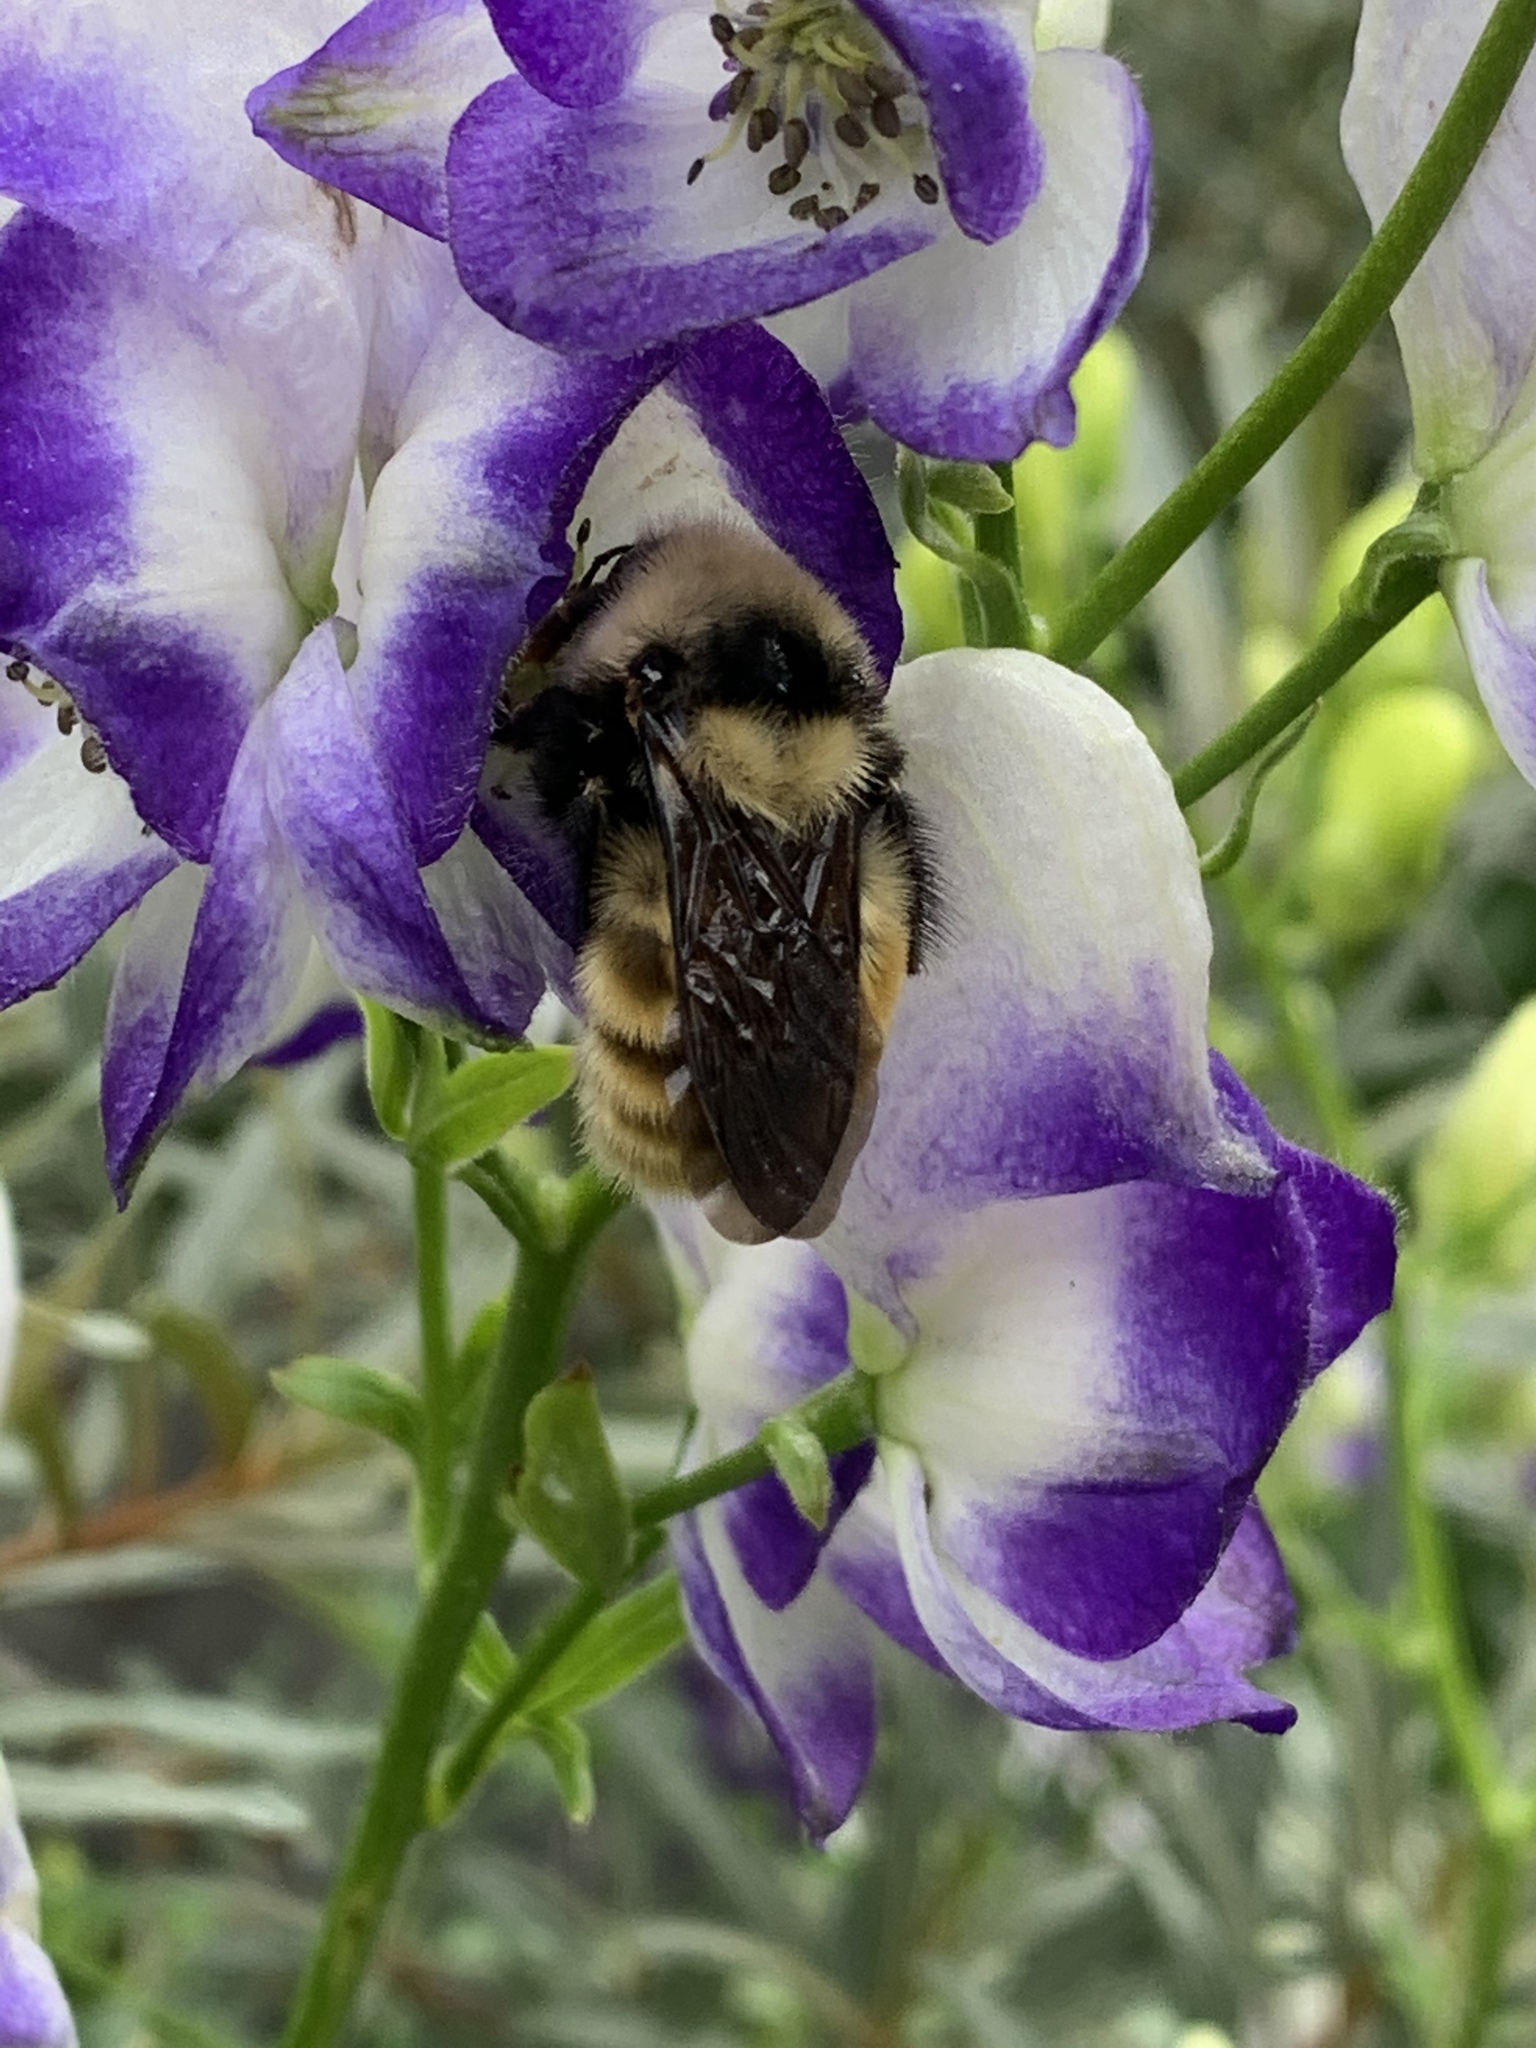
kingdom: Animalia
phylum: Arthropoda
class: Insecta
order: Hymenoptera
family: Apidae
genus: Bombus
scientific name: Bombus appositus
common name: White-shouldered bumble bee
